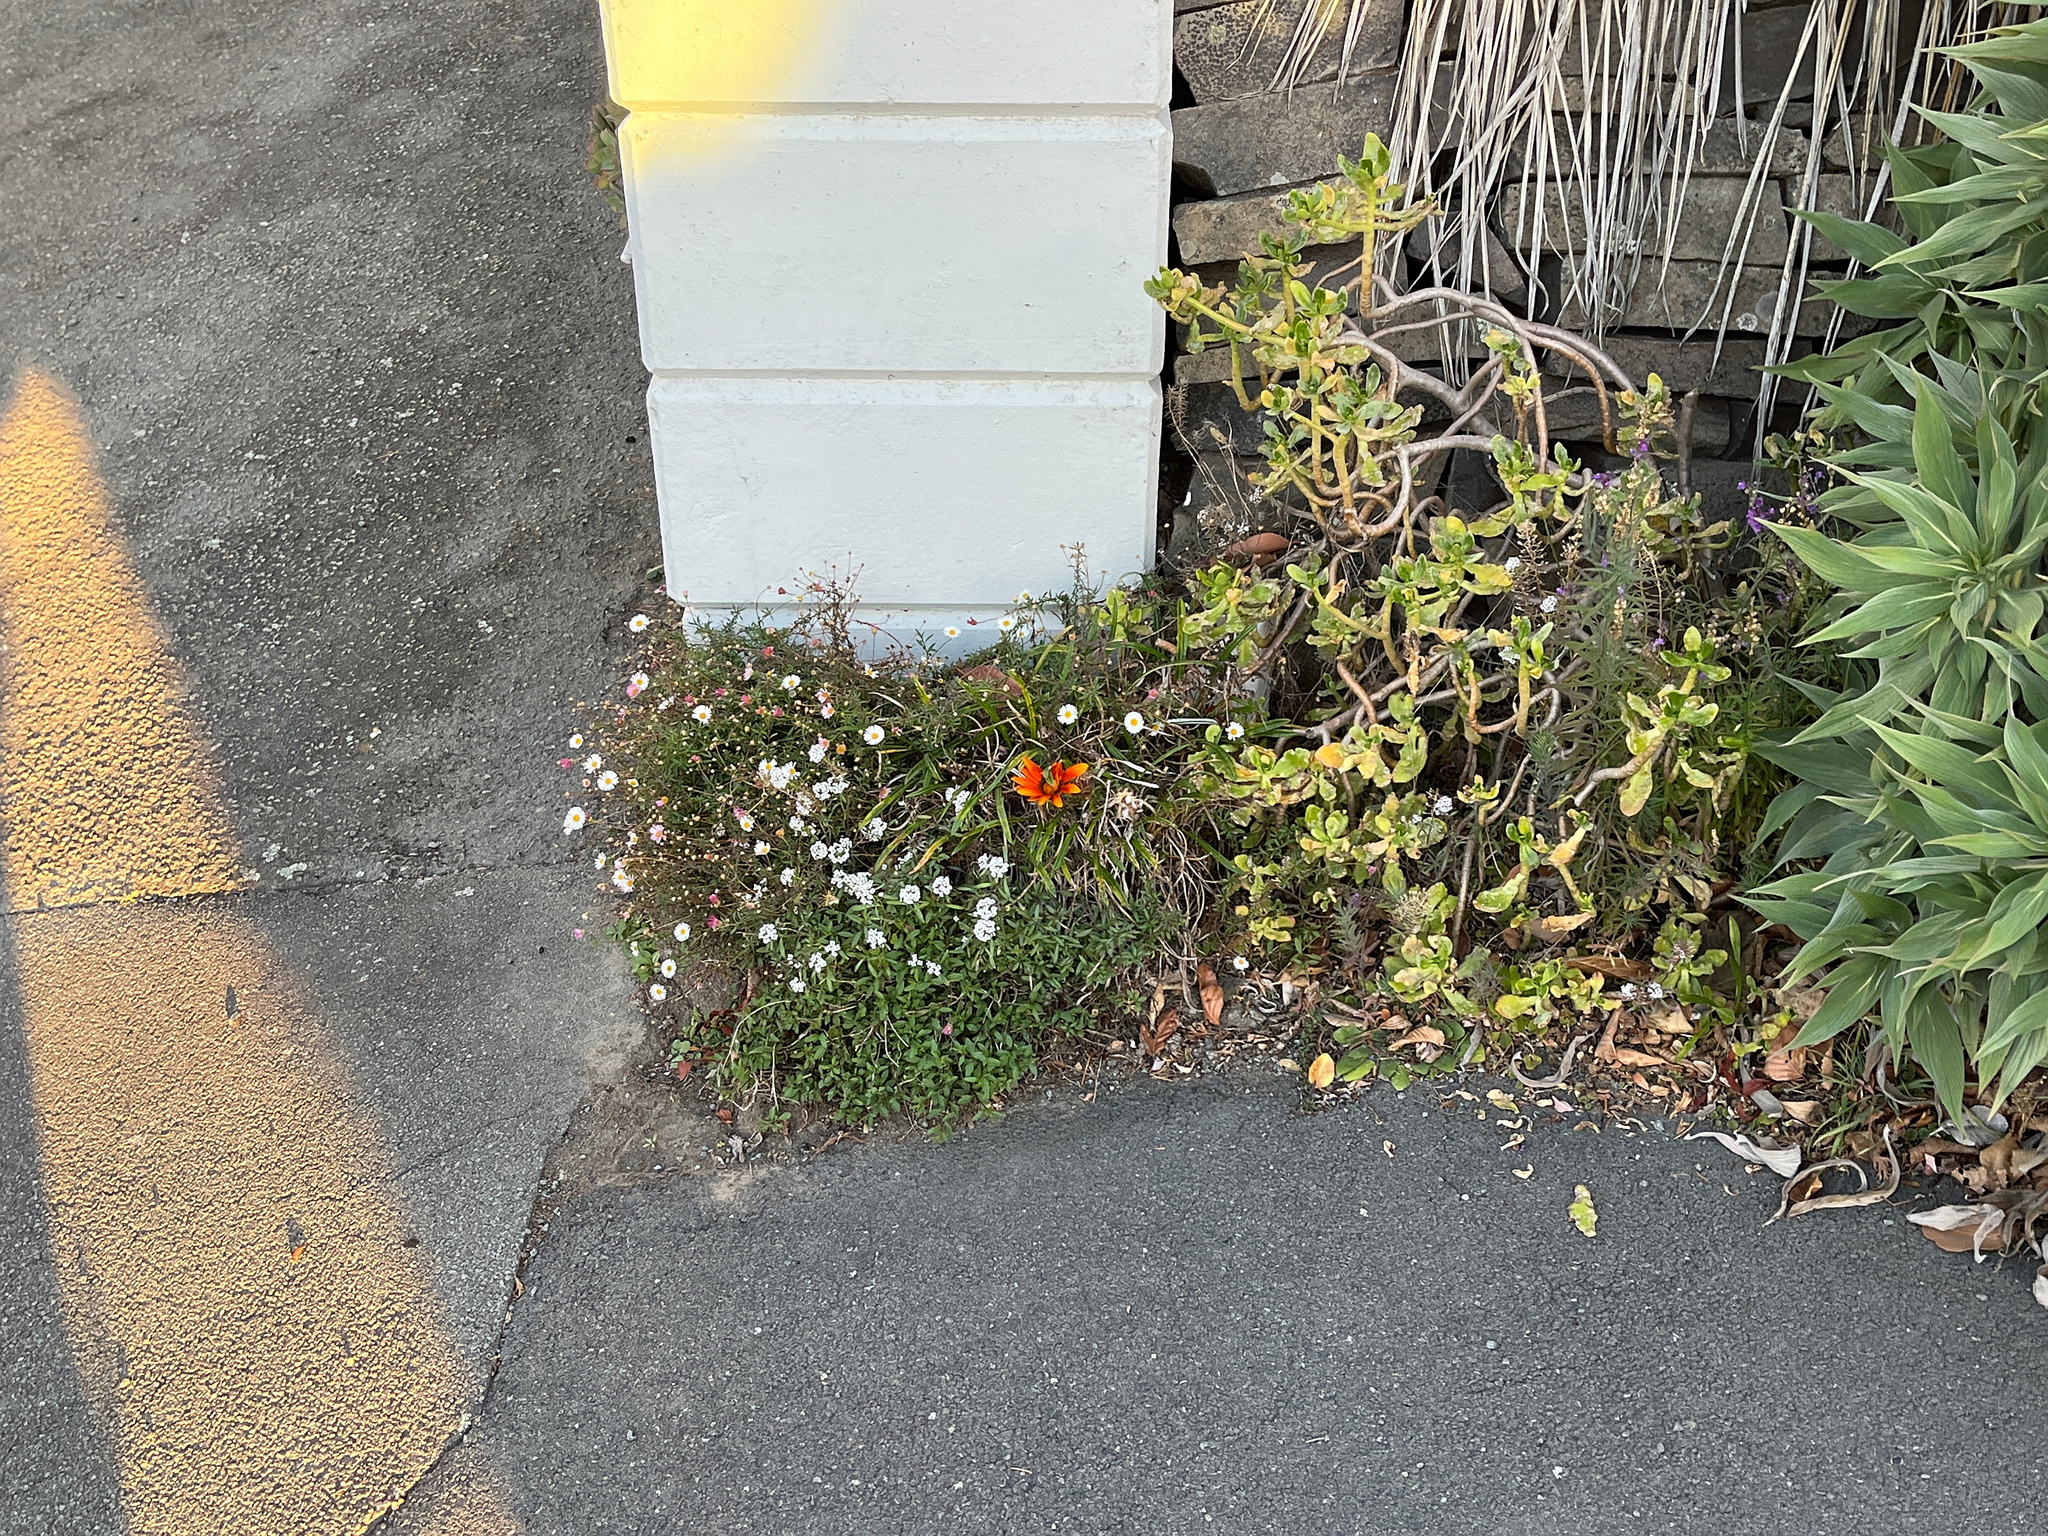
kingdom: Plantae
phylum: Tracheophyta
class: Magnoliopsida
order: Asterales
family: Asteraceae
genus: Erigeron
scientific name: Erigeron karvinskianus
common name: Mexican fleabane
